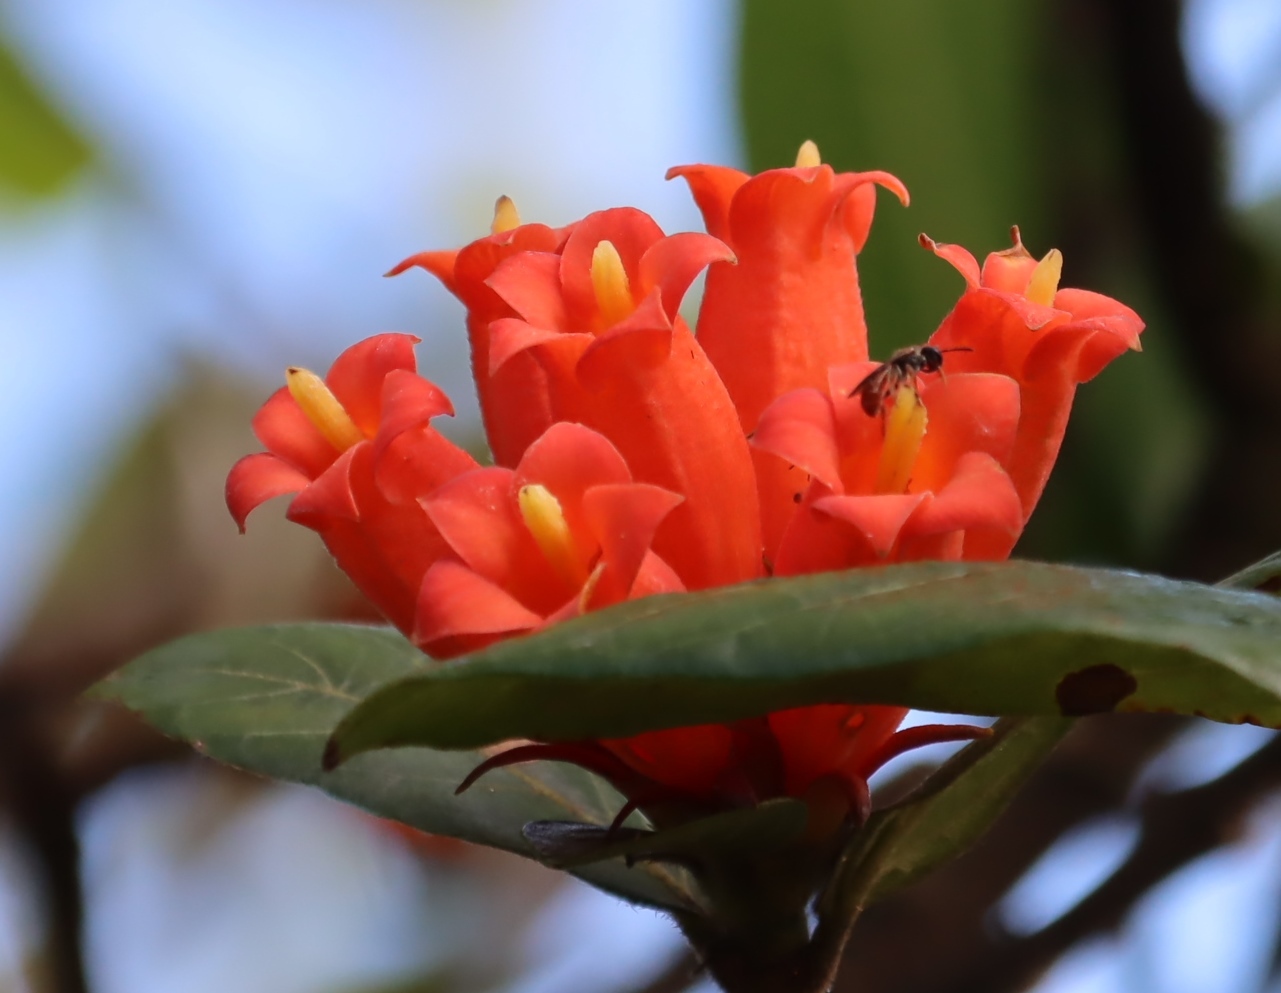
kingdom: Plantae
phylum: Tracheophyta
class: Magnoliopsida
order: Gentianales
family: Rubiaceae
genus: Burchellia
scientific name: Burchellia bubalina
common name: Wild pomegranate
